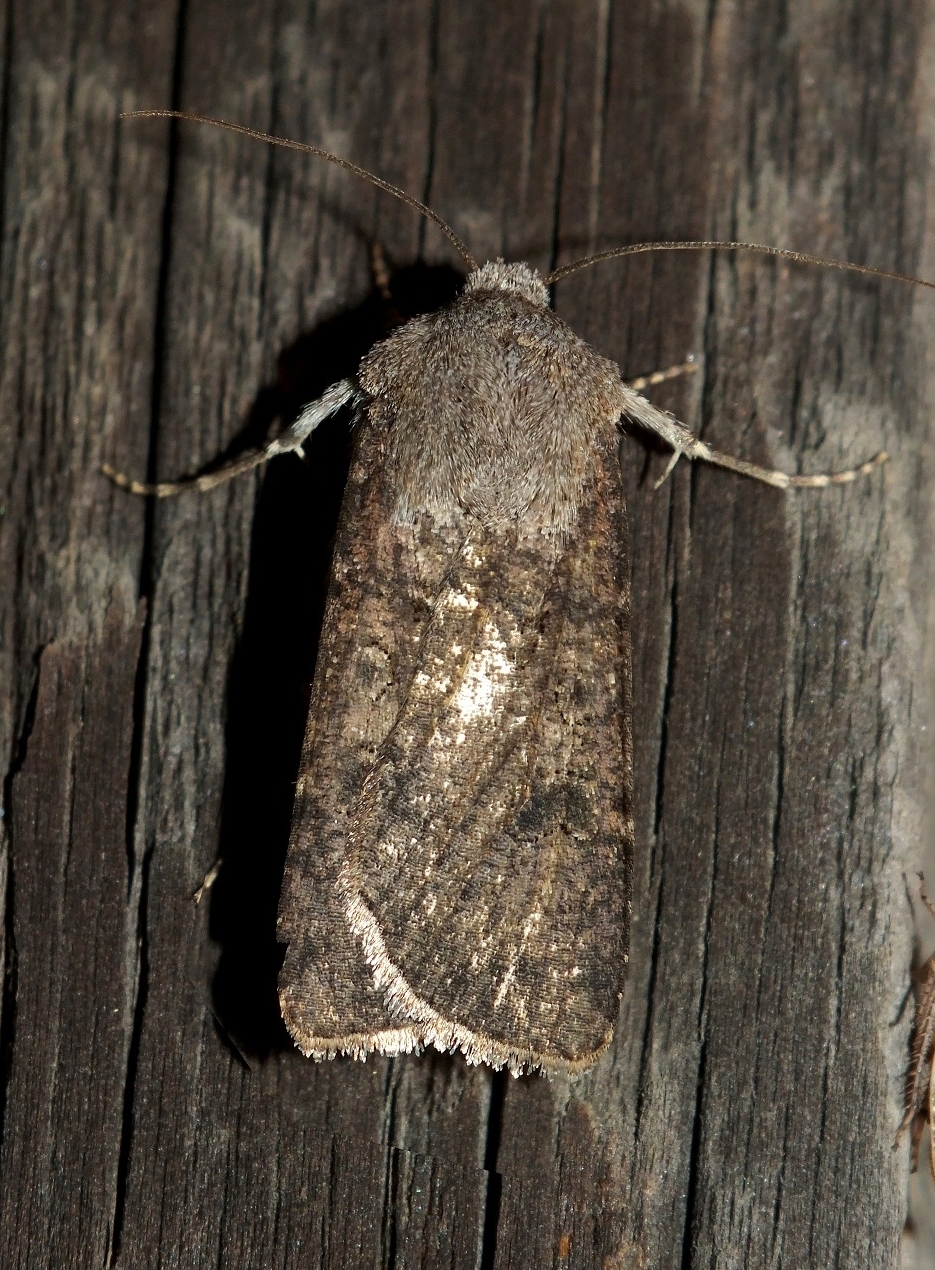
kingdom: Animalia
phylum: Arthropoda
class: Insecta
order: Lepidoptera
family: Noctuidae
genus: Agrotis
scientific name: Agrotis segetum
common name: Turnip moth
